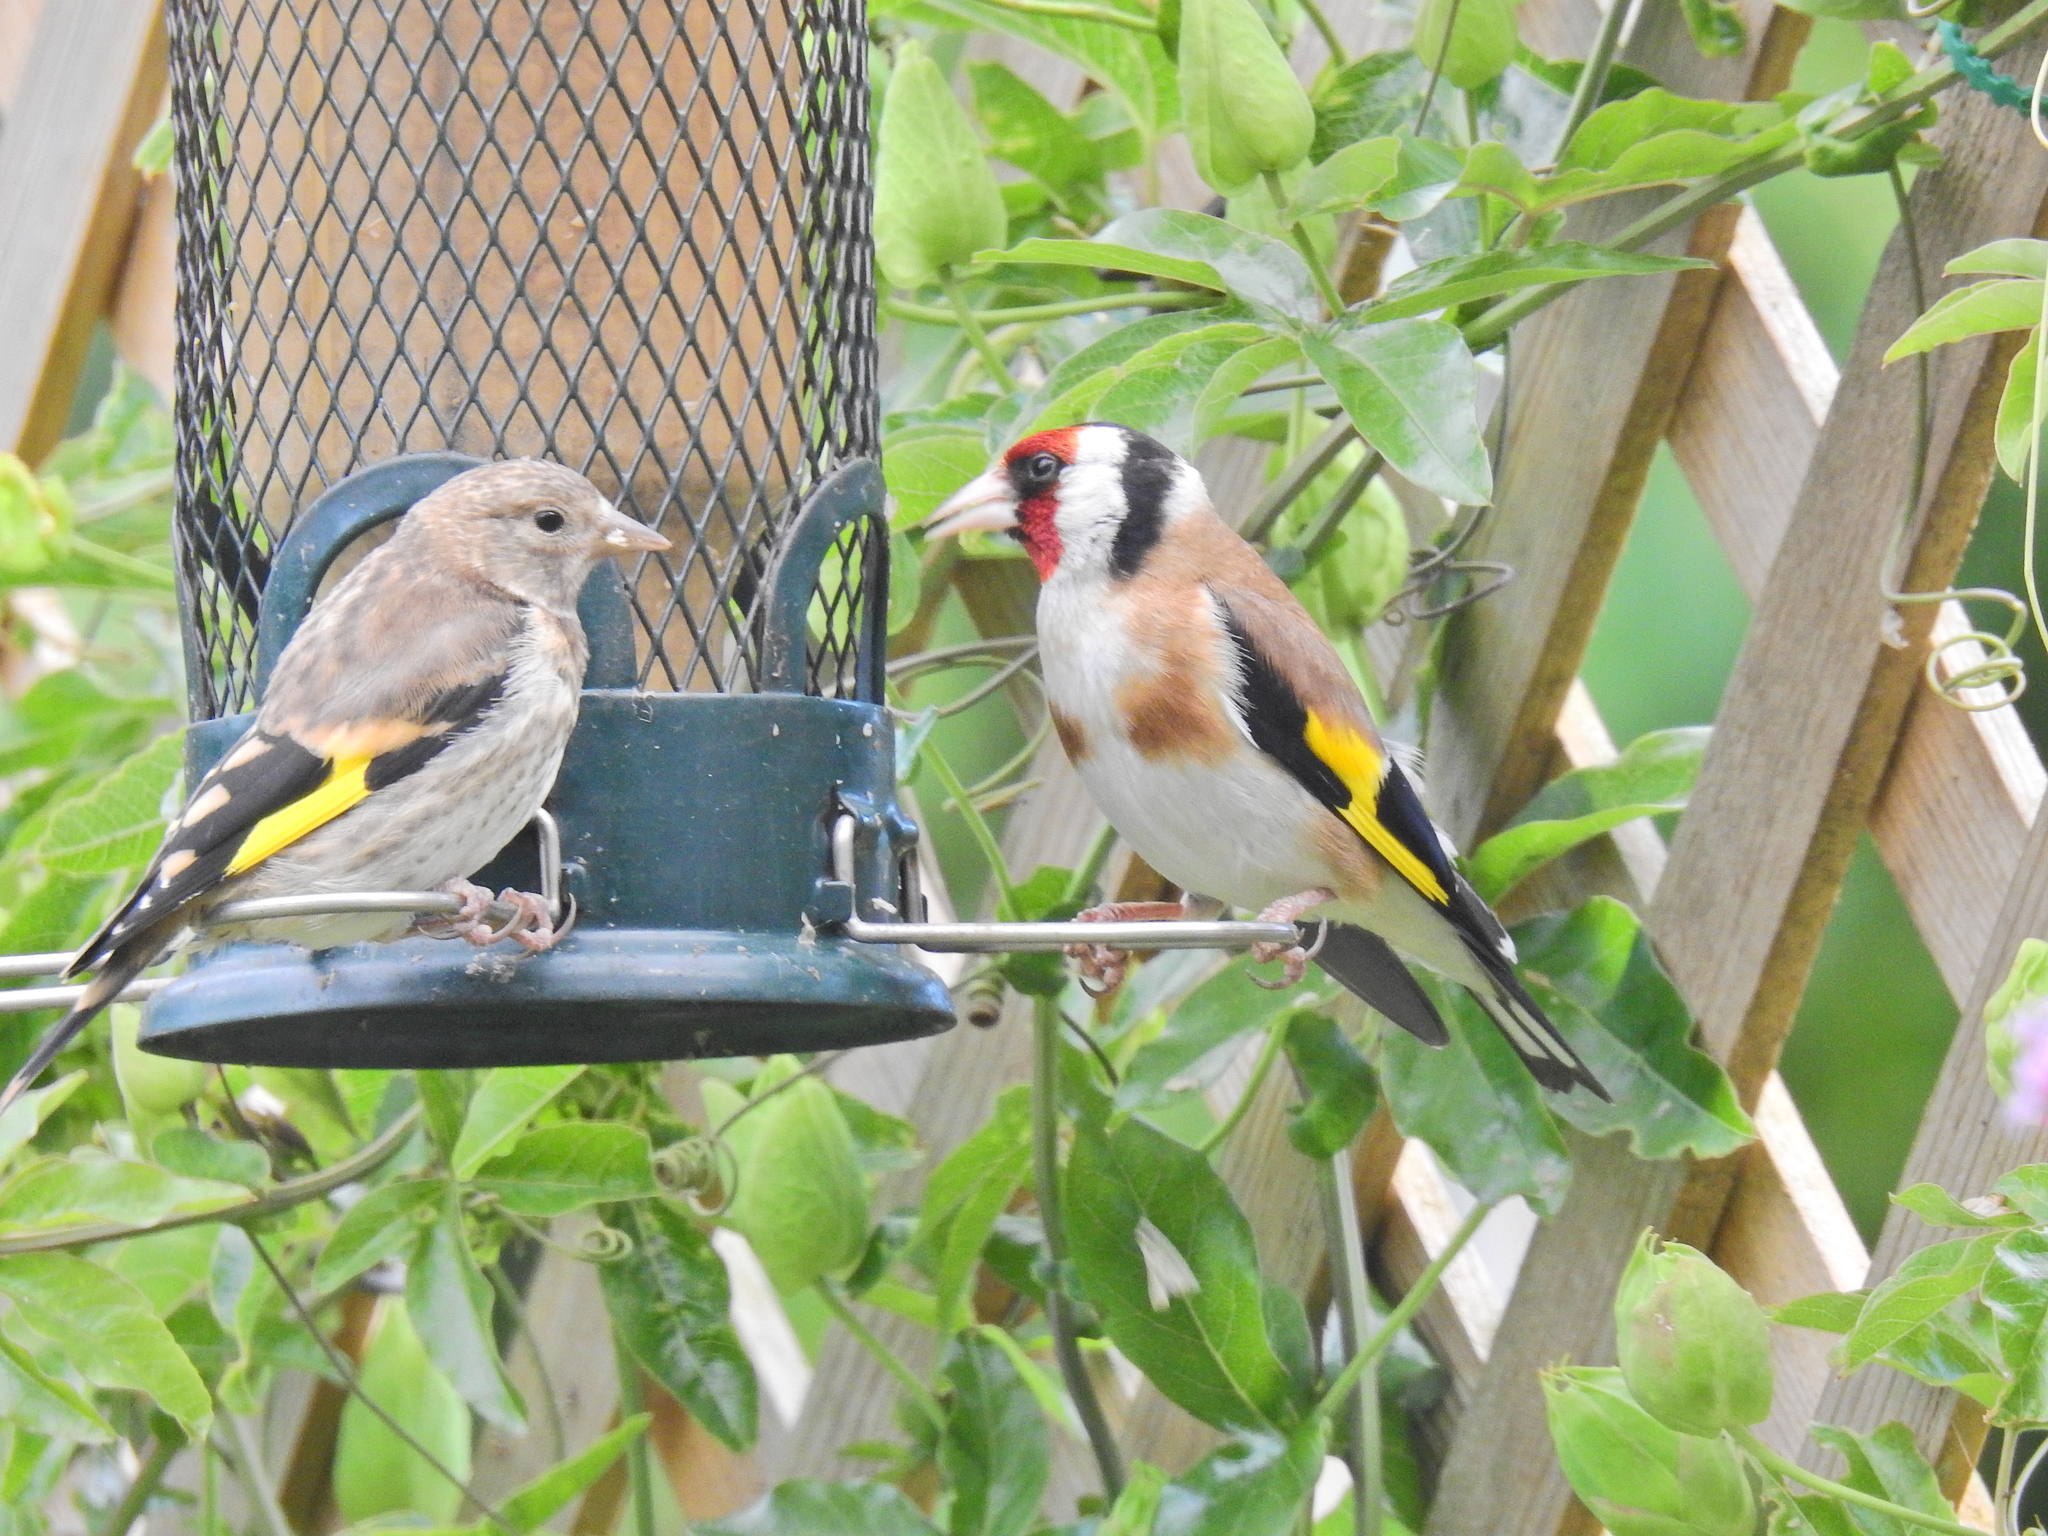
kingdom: Animalia
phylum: Chordata
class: Aves
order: Passeriformes
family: Fringillidae
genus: Carduelis
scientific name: Carduelis carduelis
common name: European goldfinch
